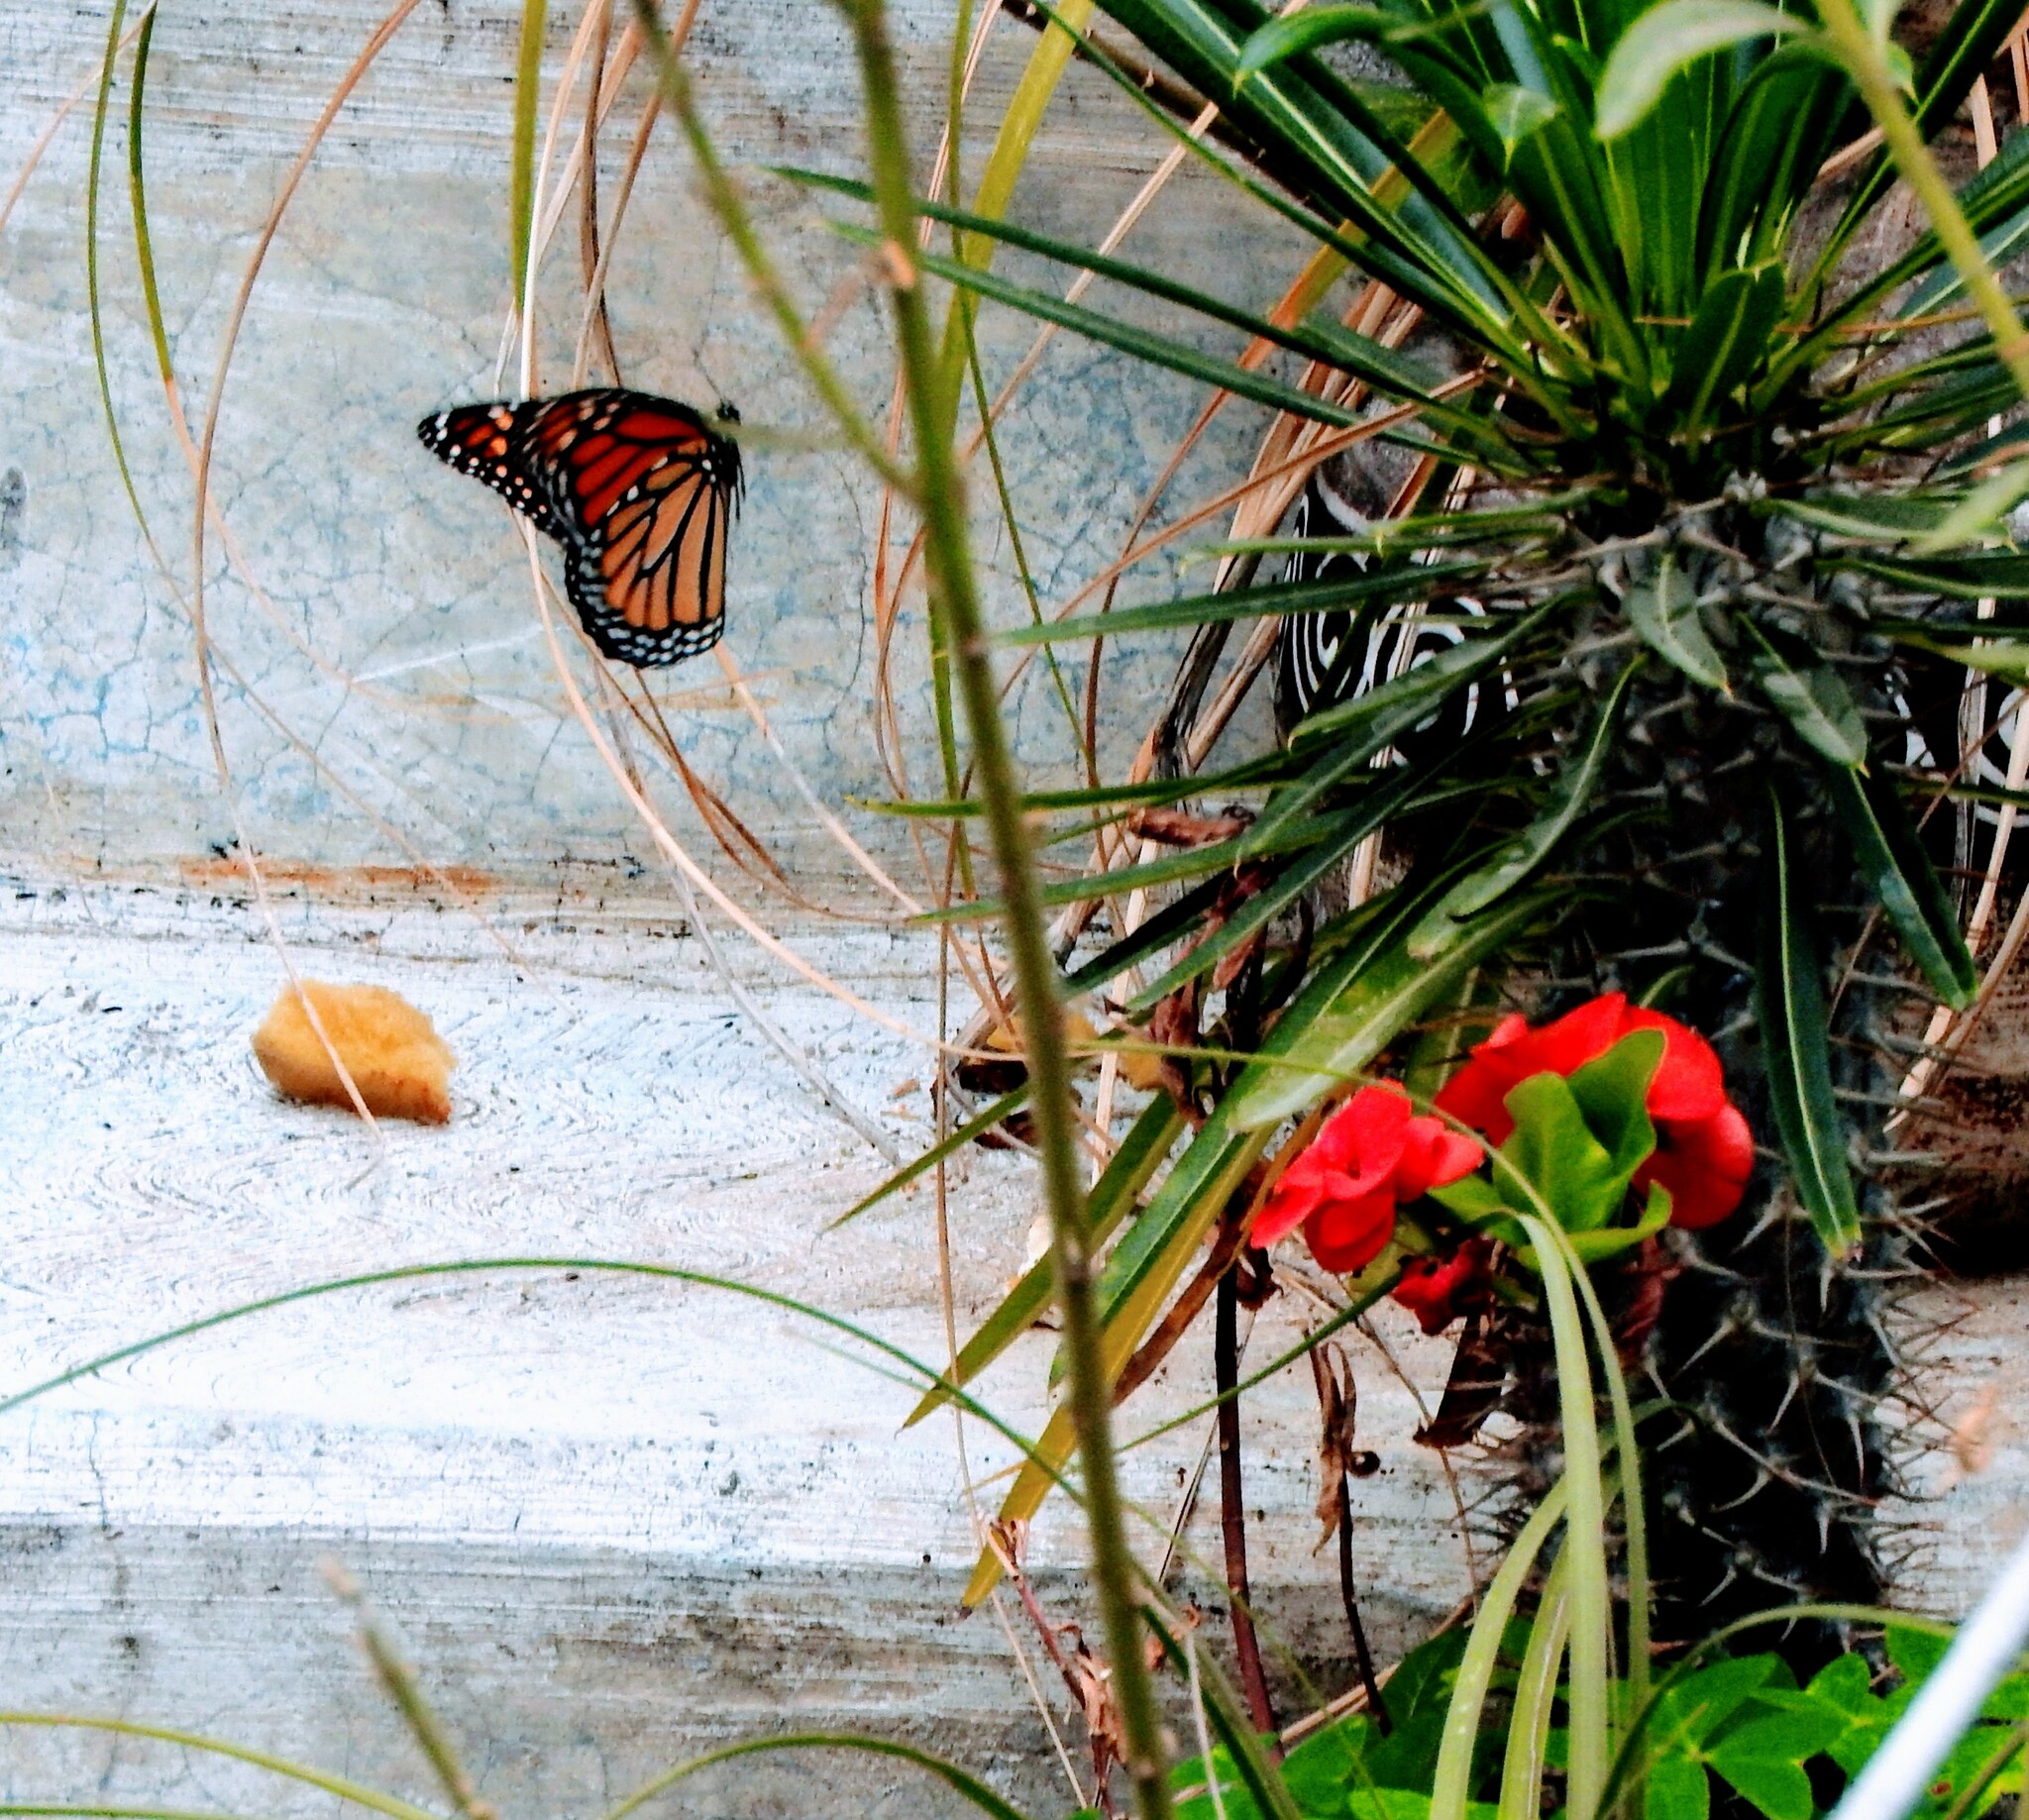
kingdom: Animalia
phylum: Arthropoda
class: Insecta
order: Lepidoptera
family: Nymphalidae
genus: Danaus
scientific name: Danaus plexippus
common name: Monarch
